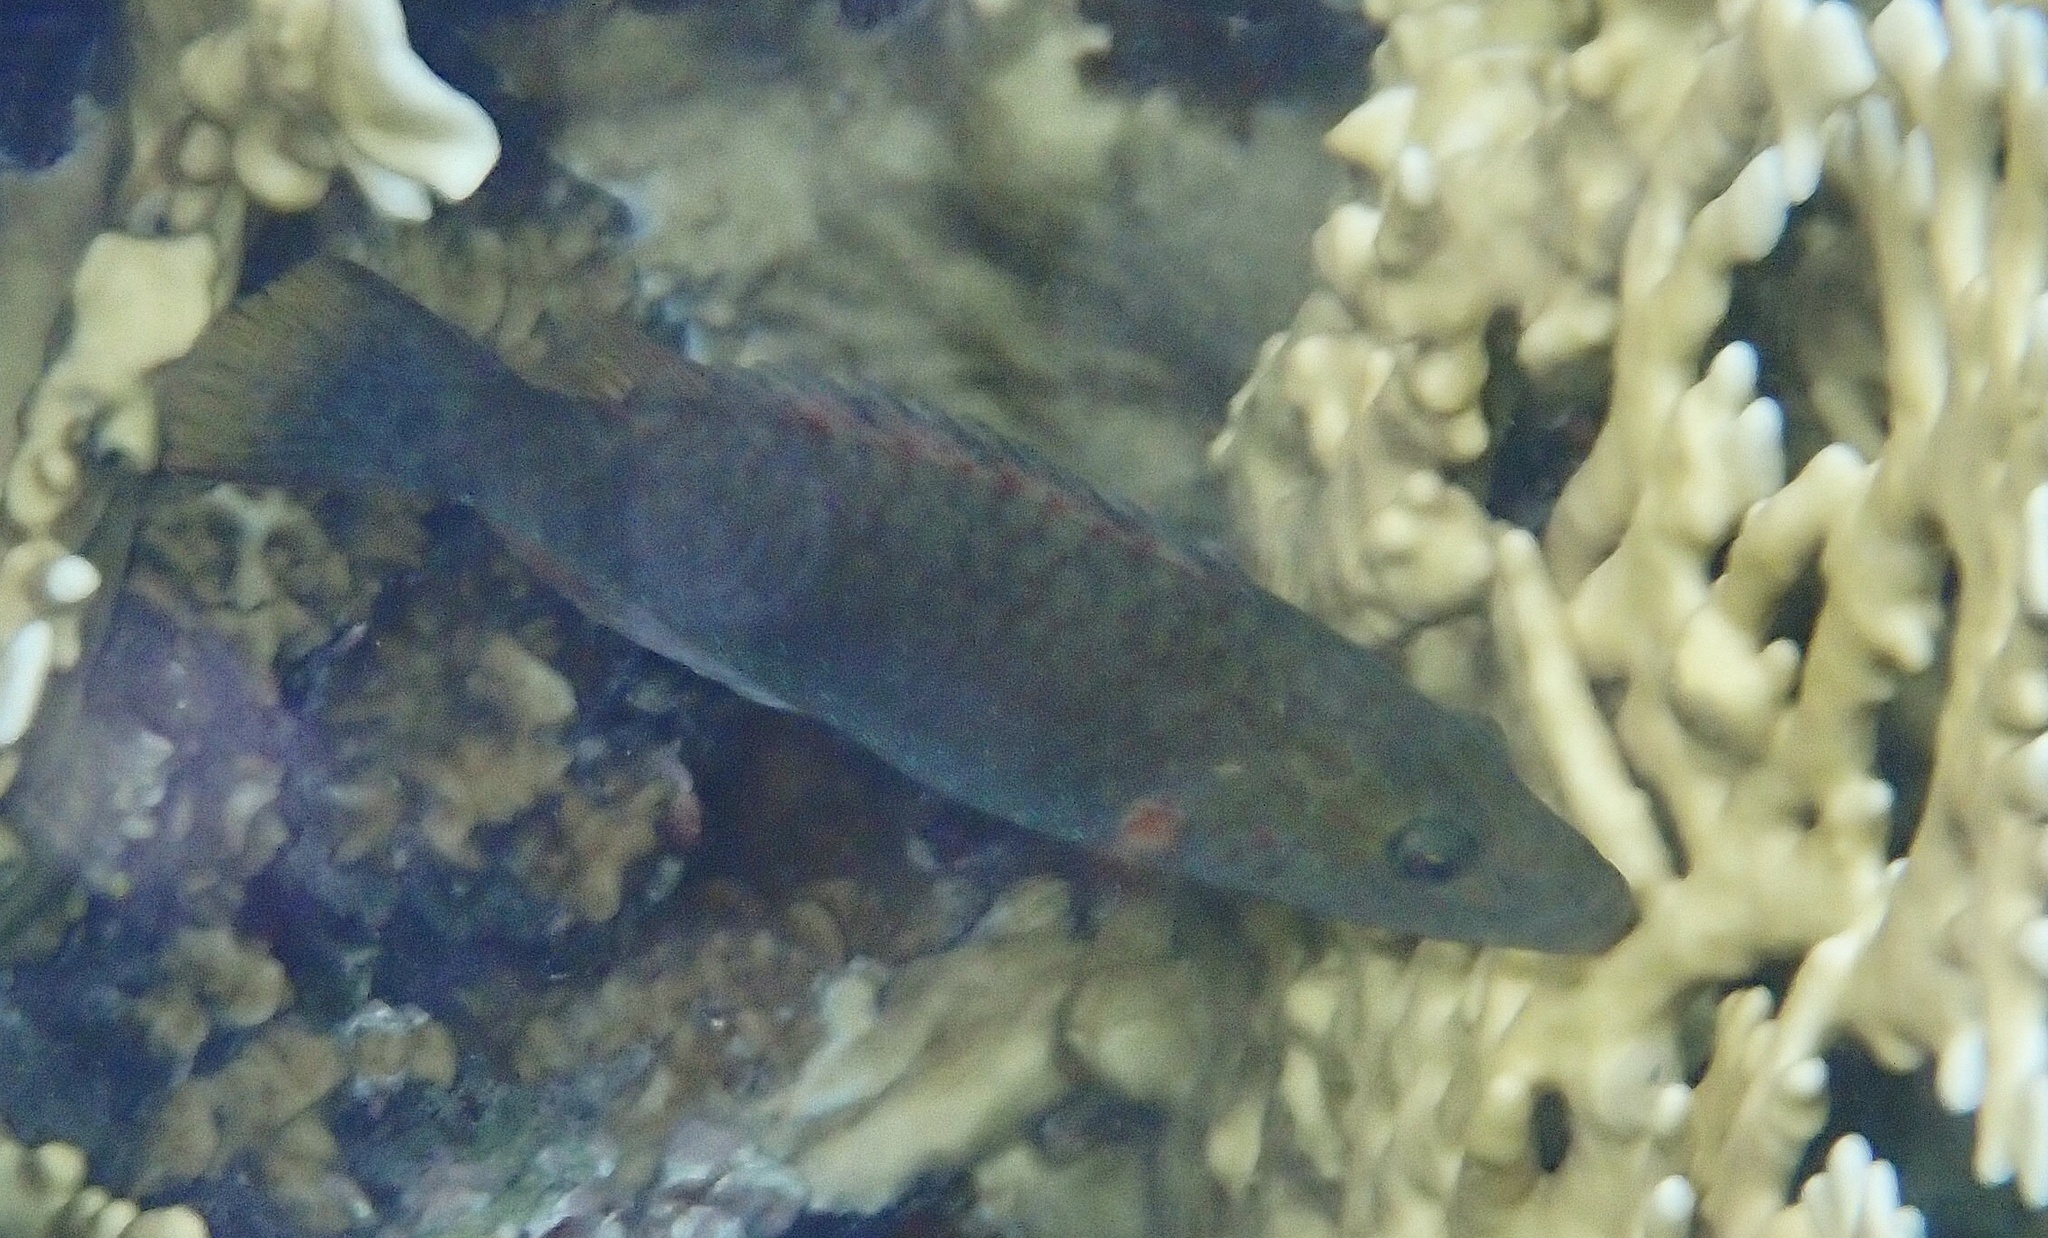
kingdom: Animalia
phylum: Chordata
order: Perciformes
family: Labridae
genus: Oxycheilinus
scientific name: Oxycheilinus digramma
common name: Bandcheek wrasse
